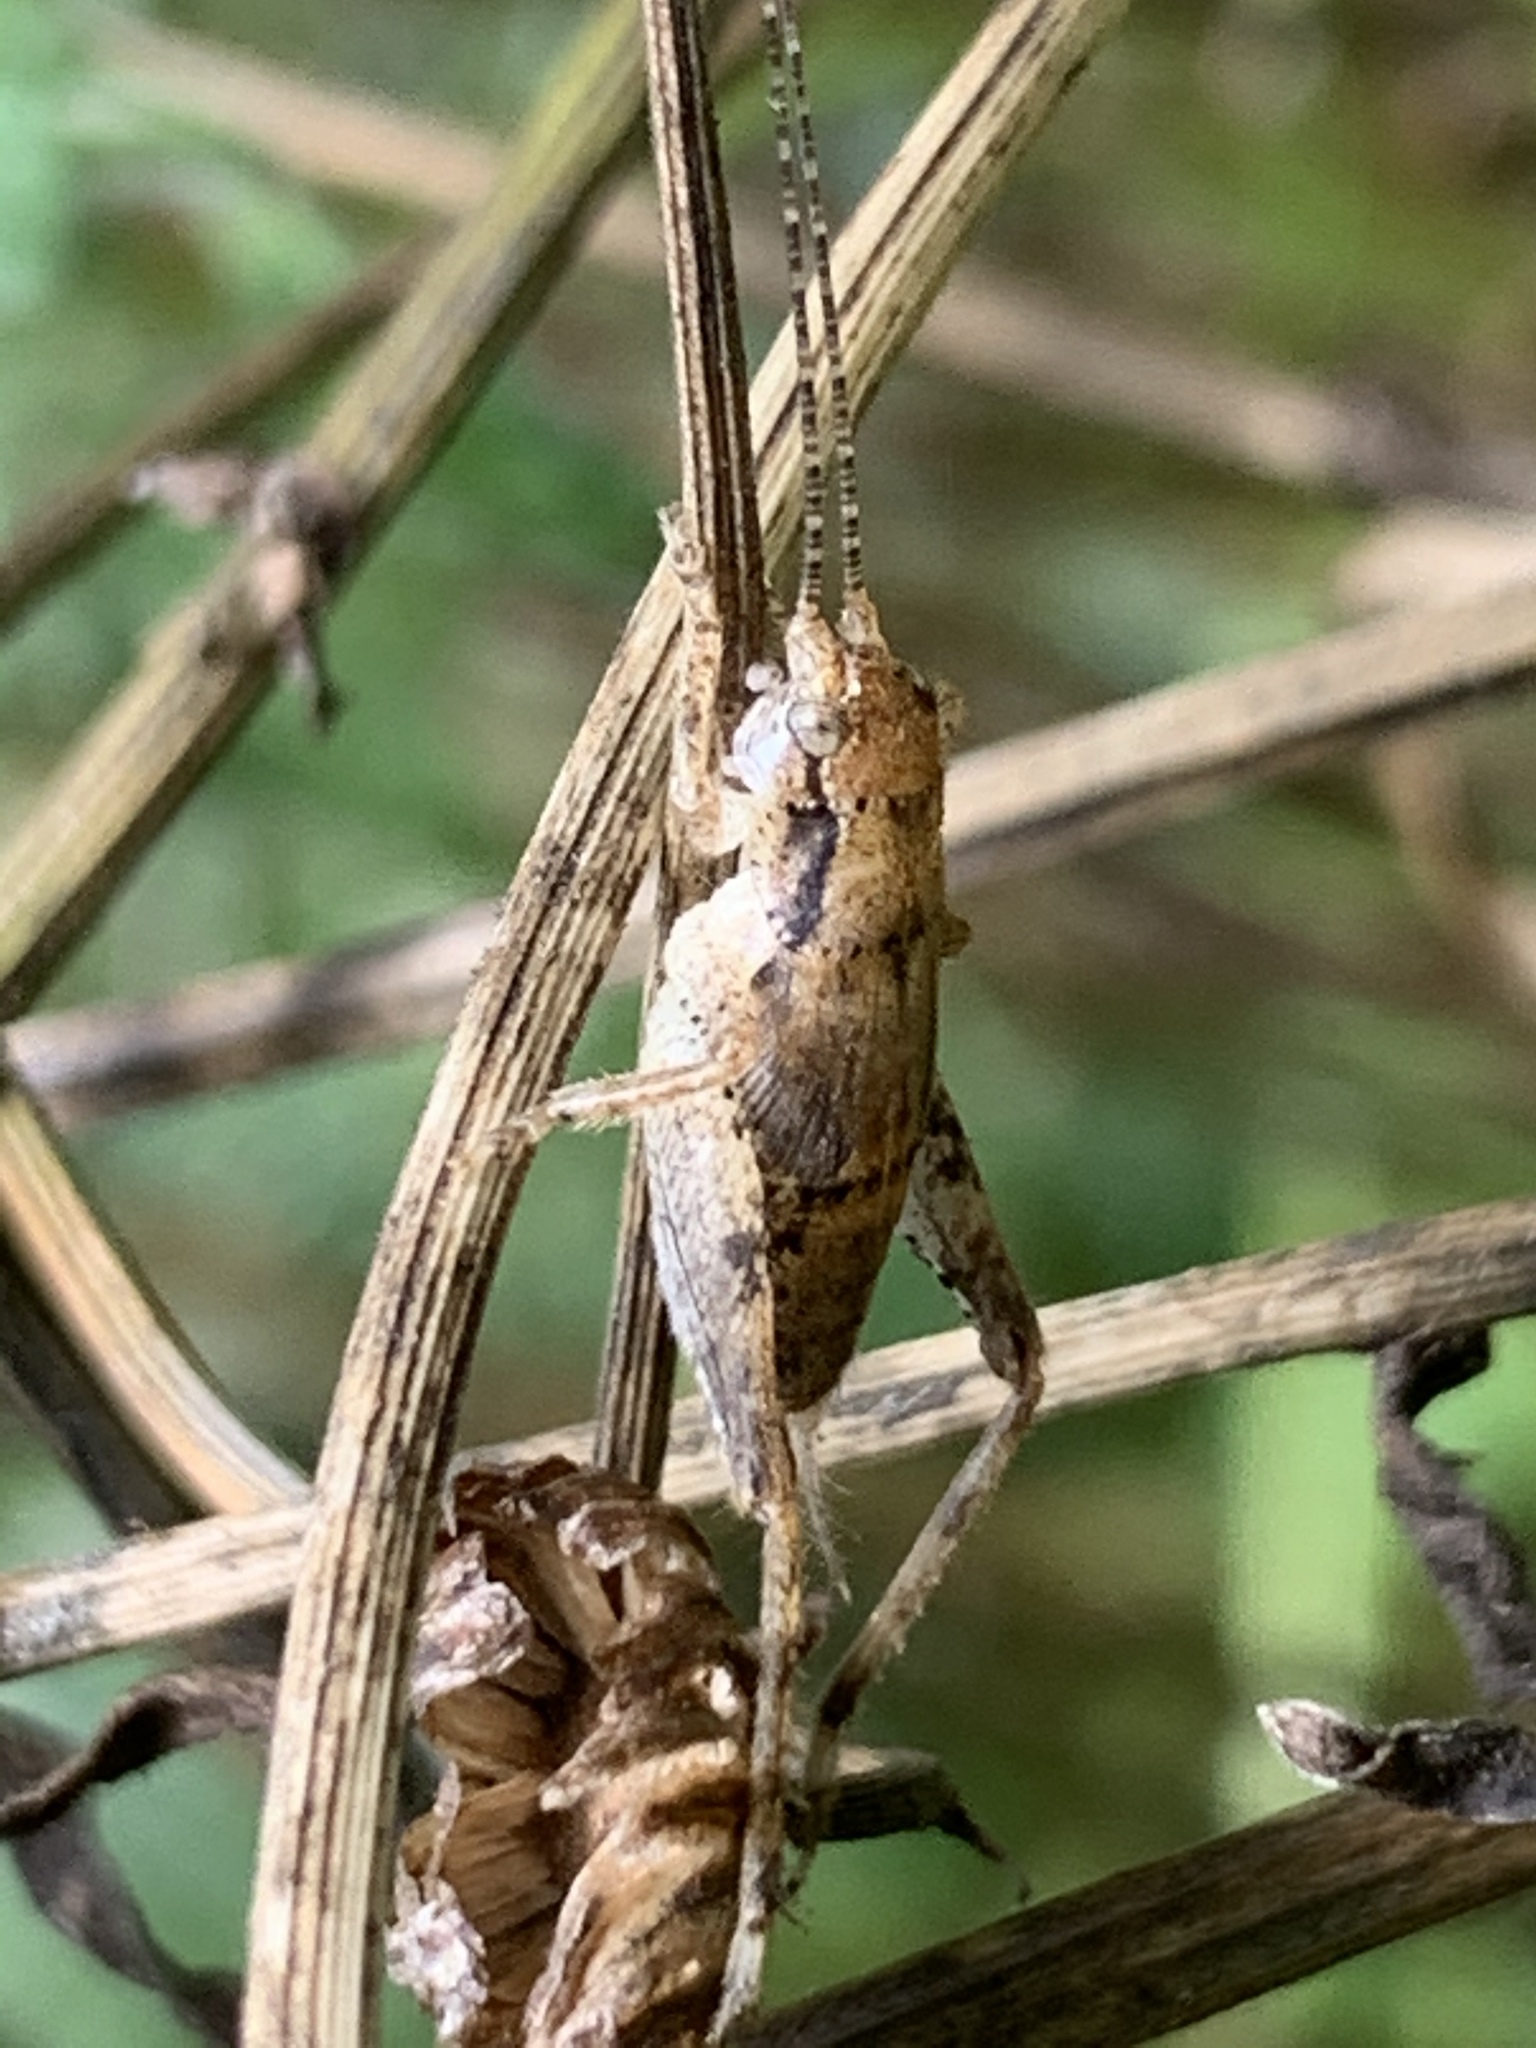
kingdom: Animalia
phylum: Arthropoda
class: Insecta
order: Orthoptera
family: Gryllidae
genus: Hapithus
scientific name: Hapithus saltator
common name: Jumping bush cricket
